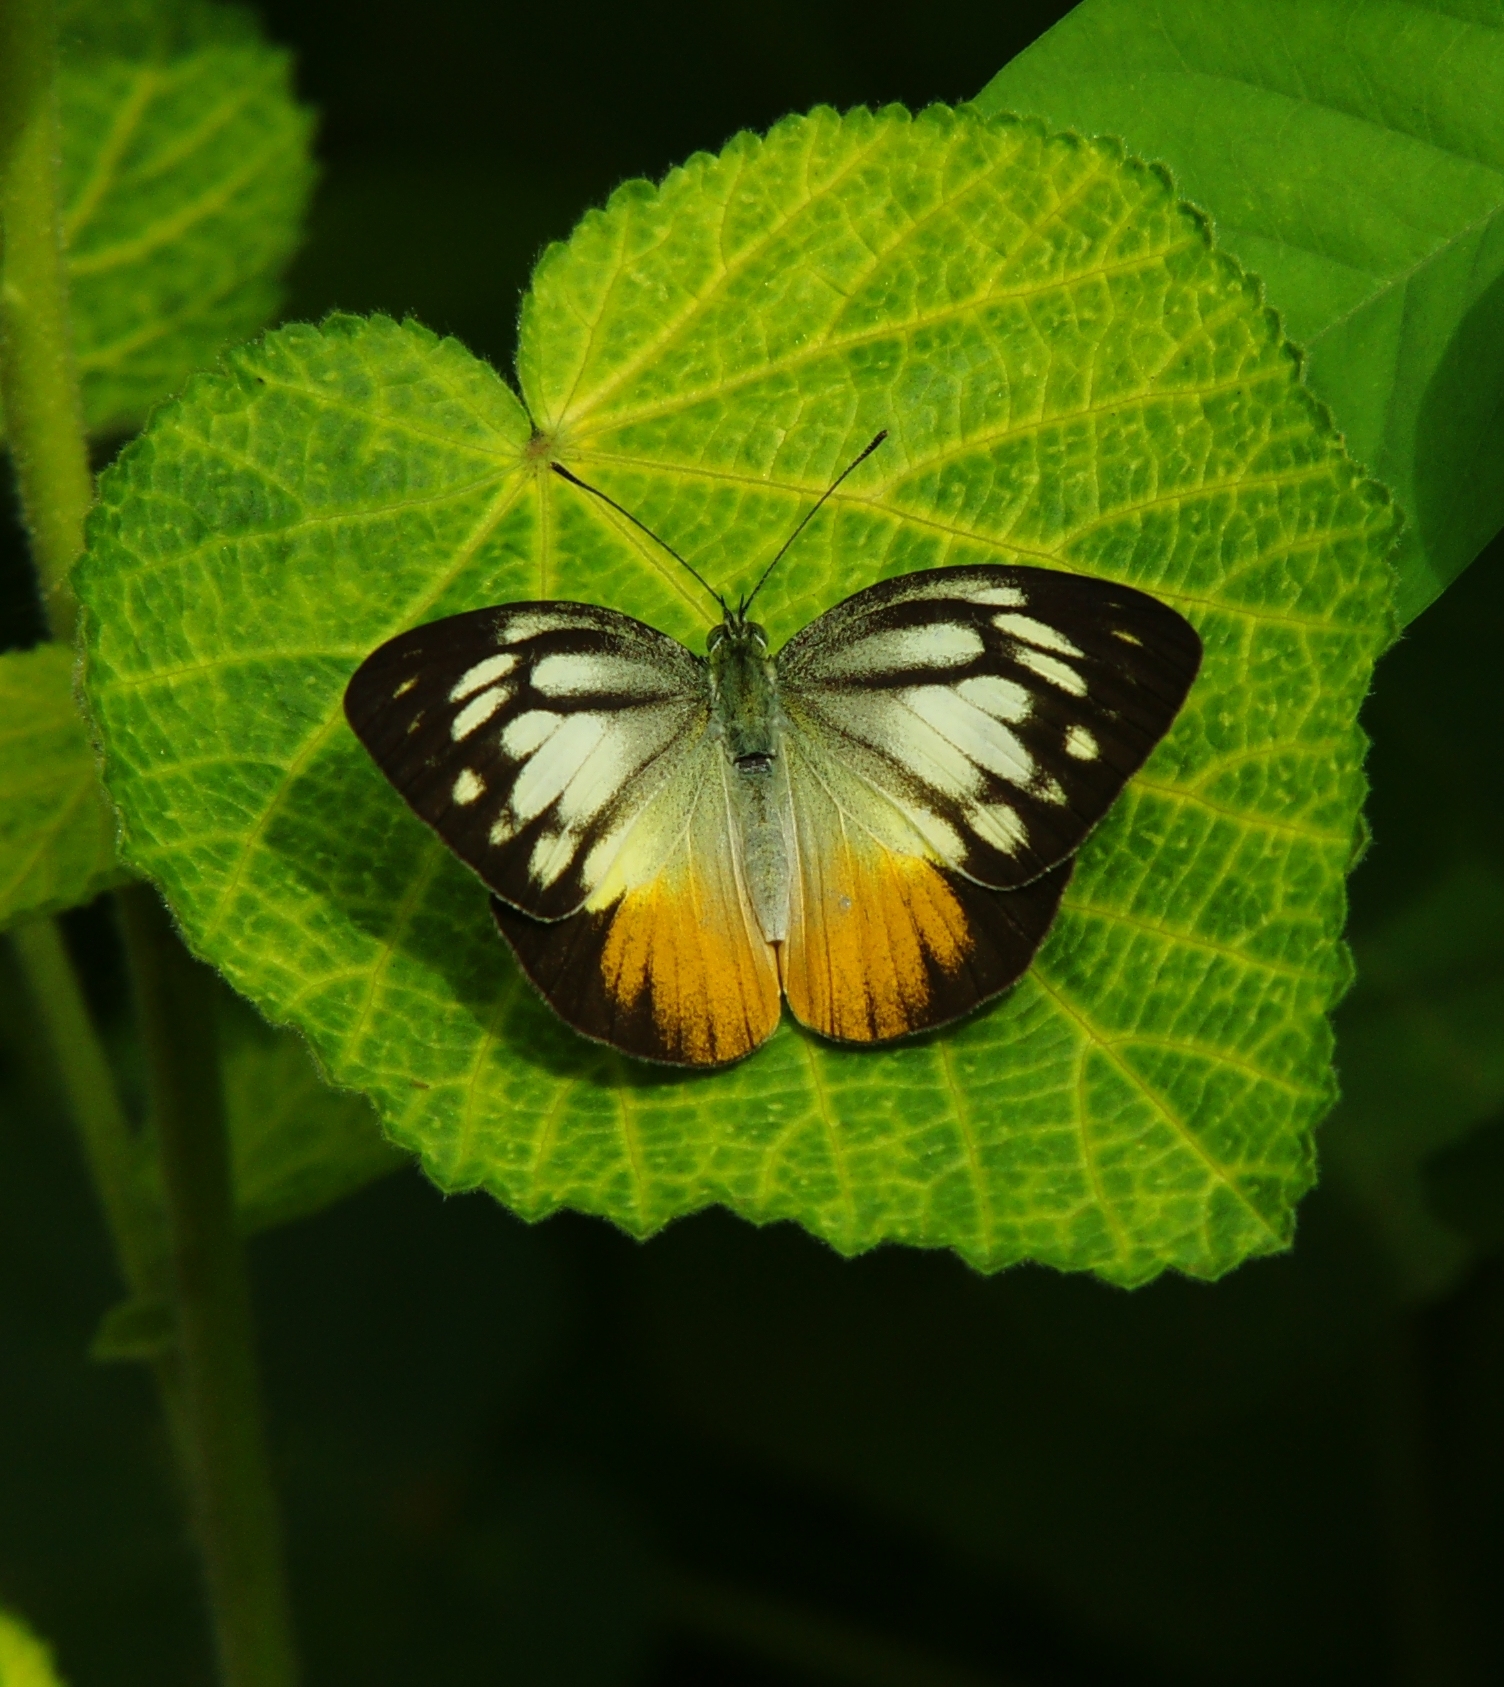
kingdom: Animalia
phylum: Arthropoda
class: Insecta
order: Lepidoptera
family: Pieridae
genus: Cepora
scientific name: Cepora iudith
